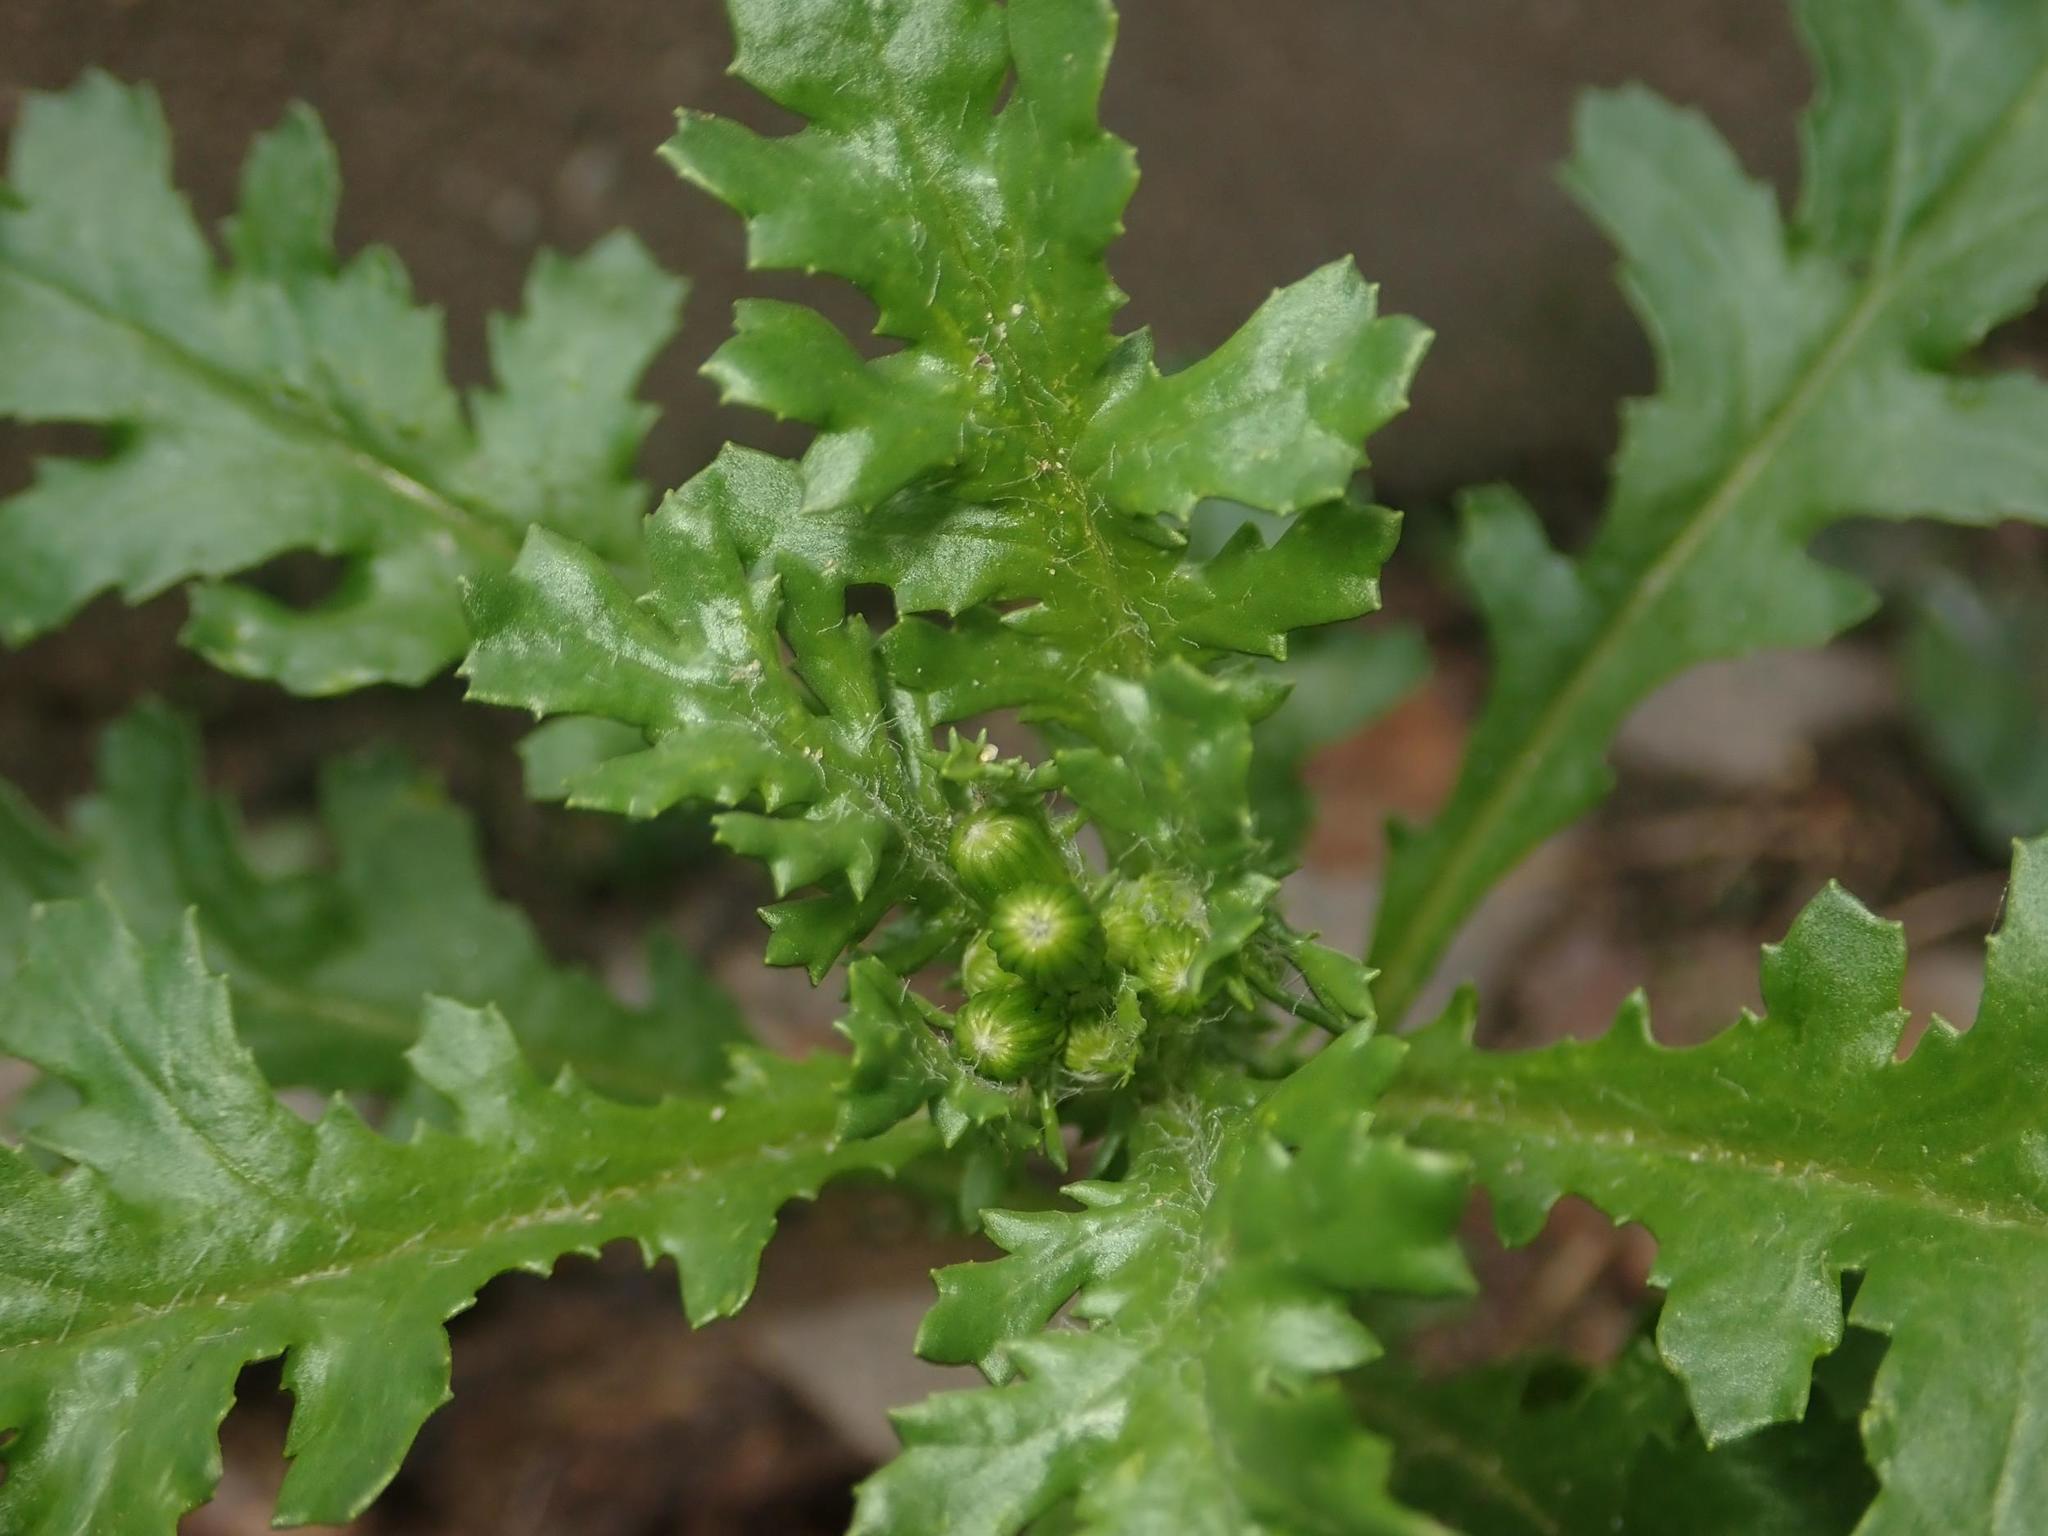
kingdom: Plantae
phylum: Tracheophyta
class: Magnoliopsida
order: Asterales
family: Asteraceae
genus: Senecio
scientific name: Senecio vulgaris
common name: Old-man-in-the-spring
